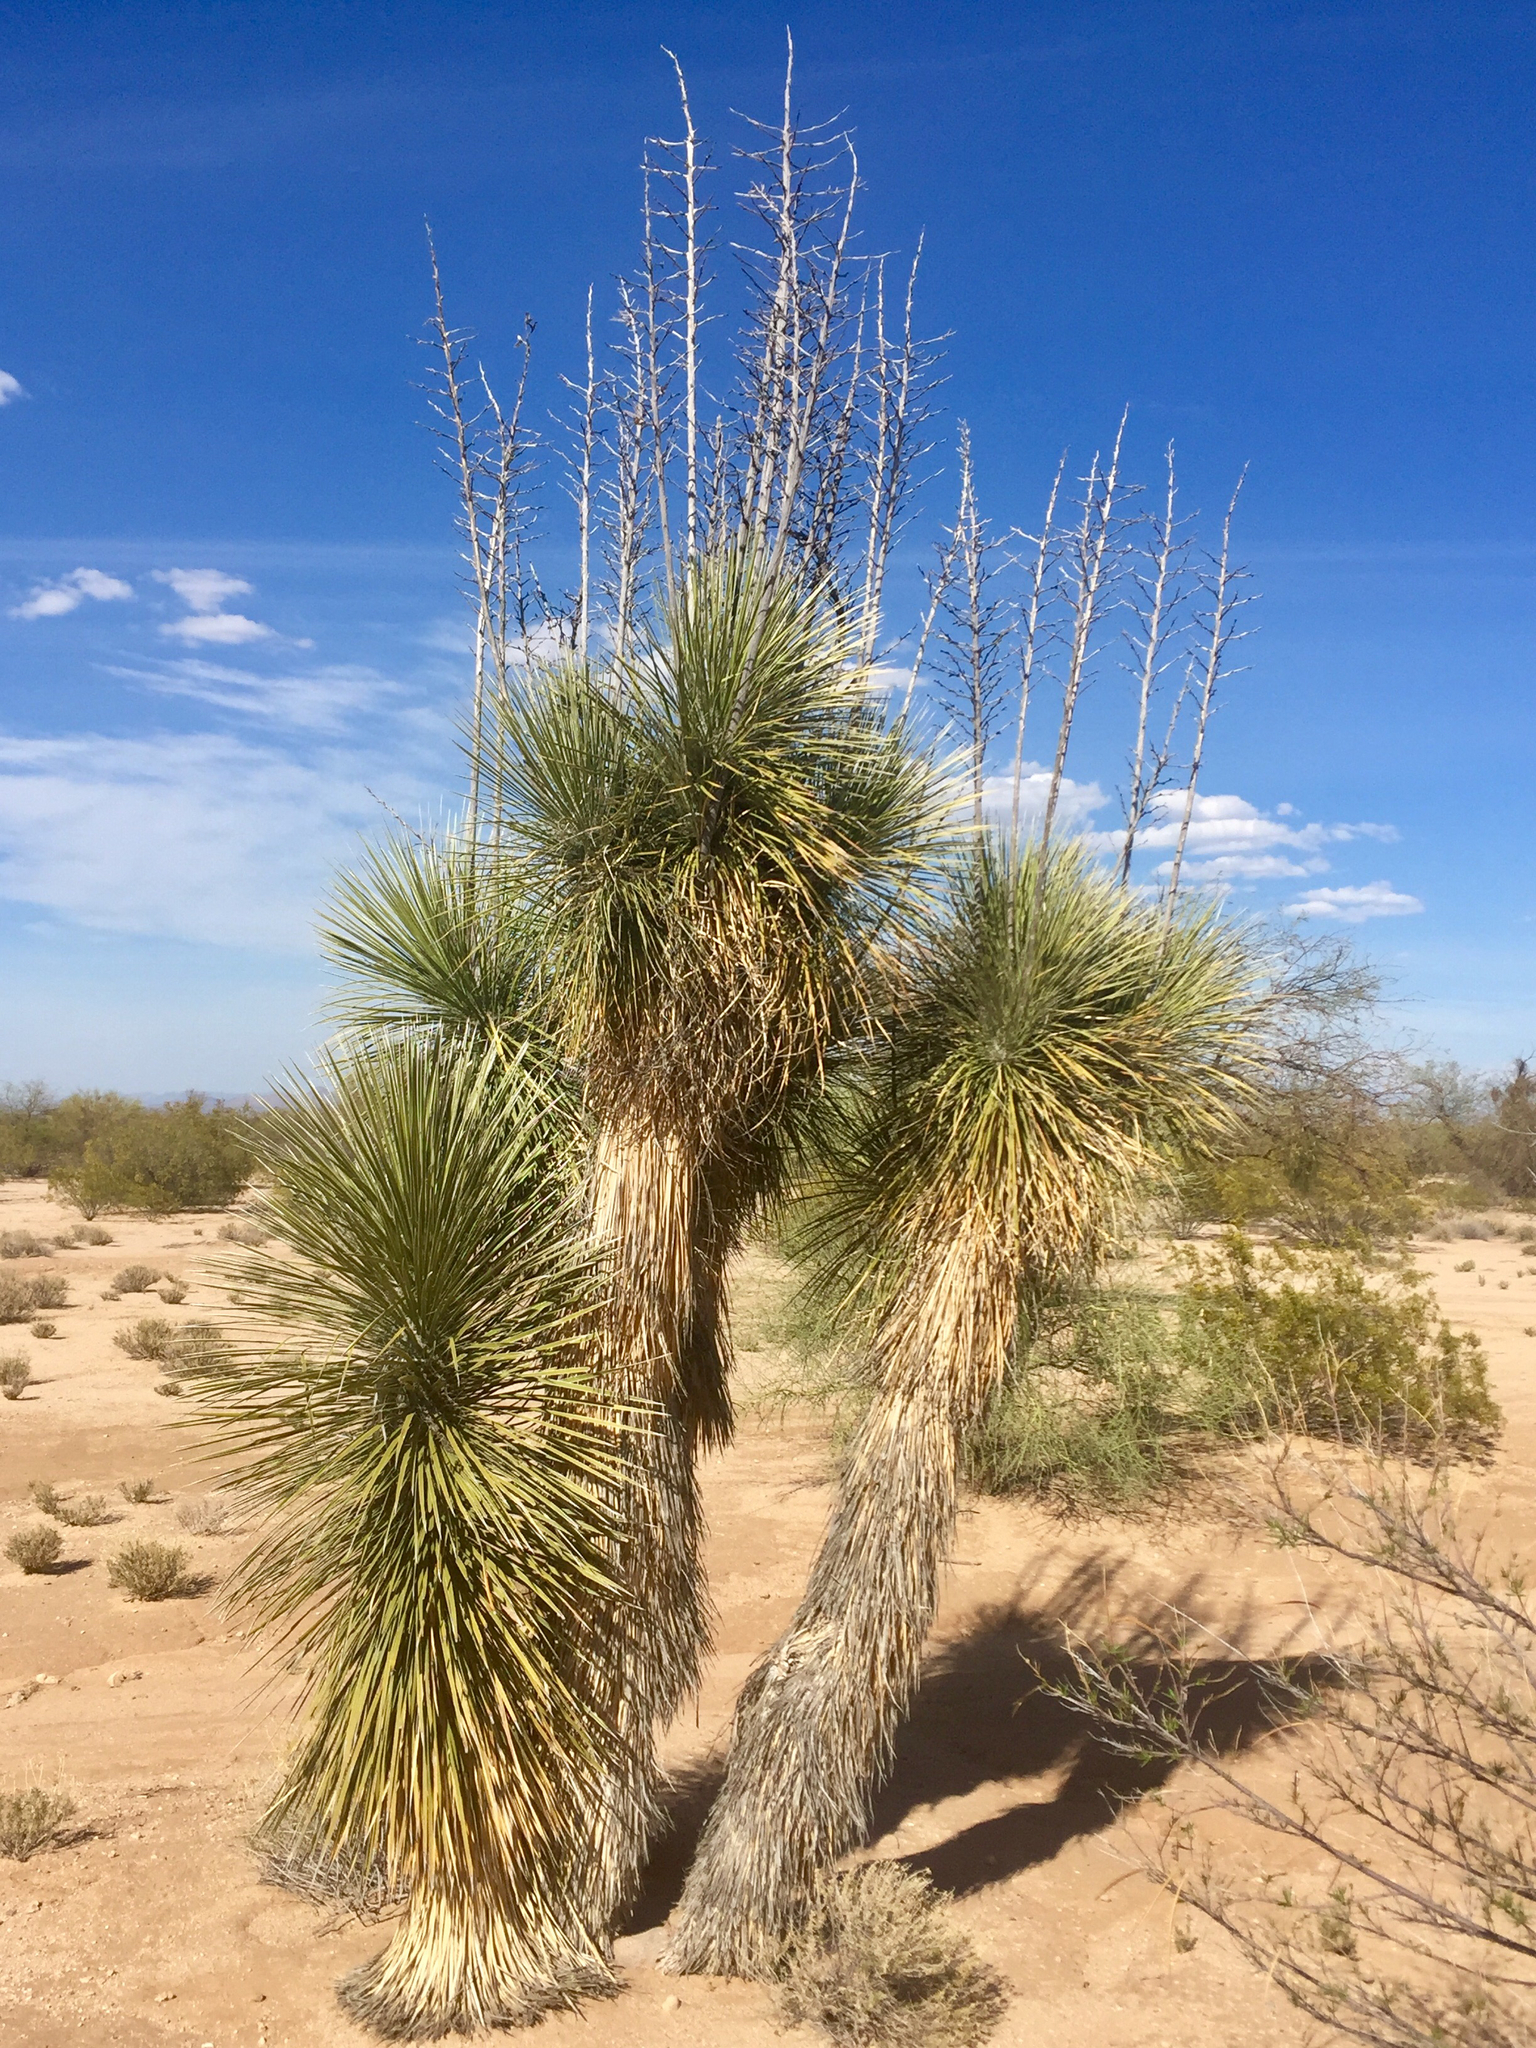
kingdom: Plantae
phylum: Tracheophyta
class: Liliopsida
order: Asparagales
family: Asparagaceae
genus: Yucca
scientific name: Yucca elata
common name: Palmella
